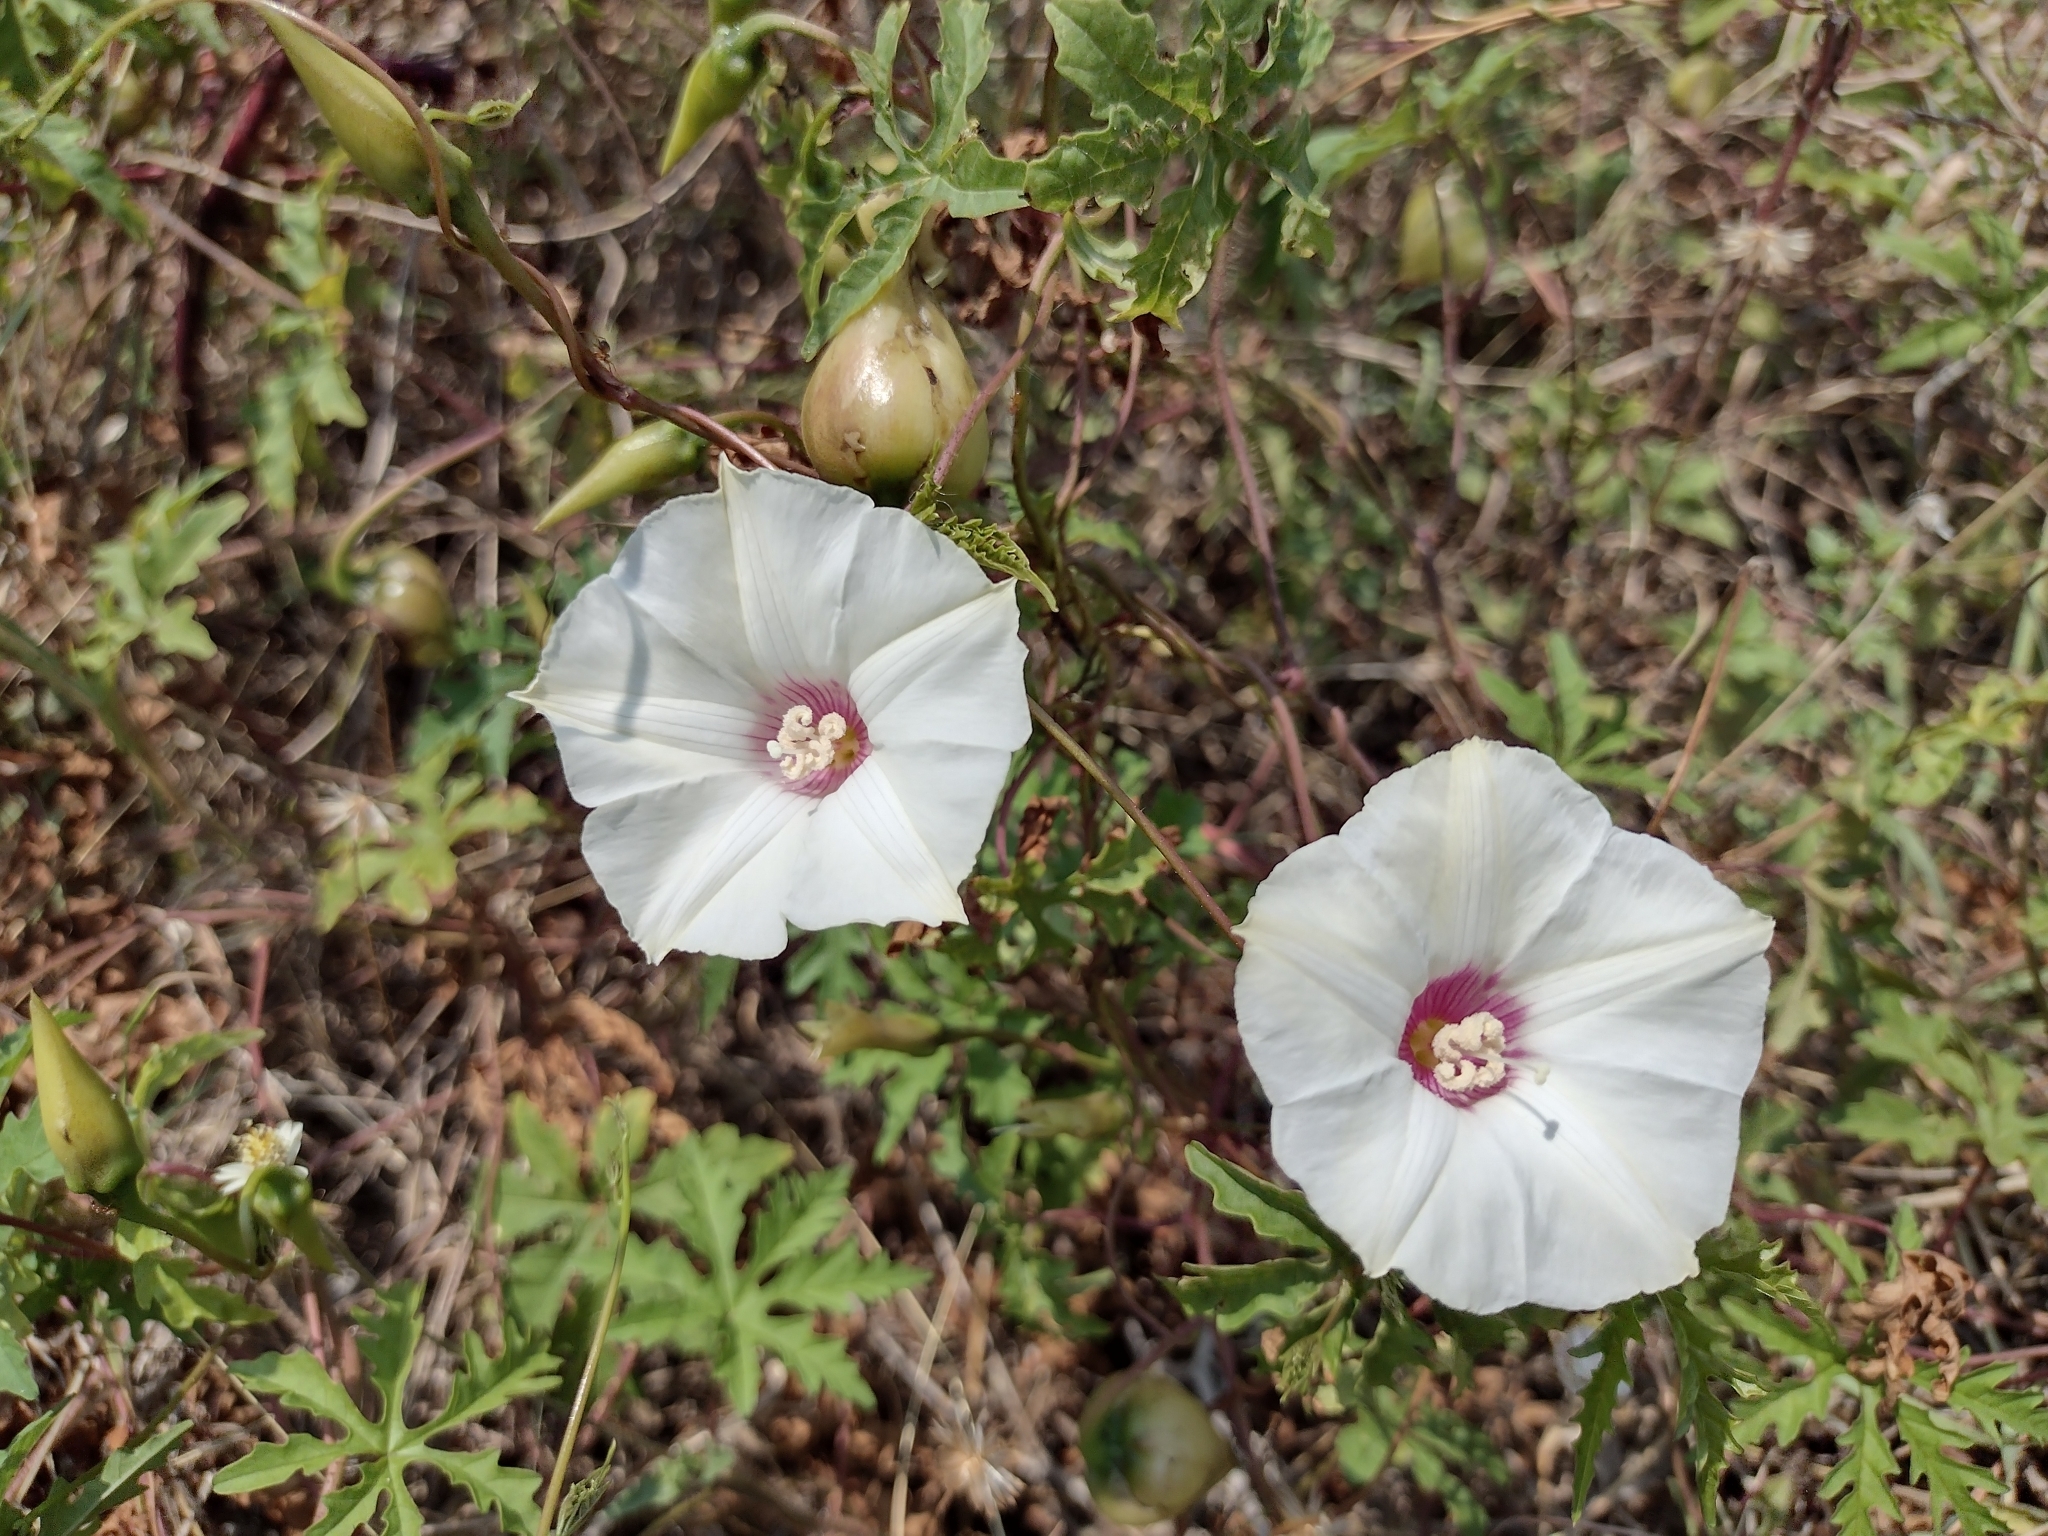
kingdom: Plantae
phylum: Tracheophyta
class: Magnoliopsida
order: Solanales
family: Convolvulaceae
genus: Distimake
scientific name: Distimake dissectus
